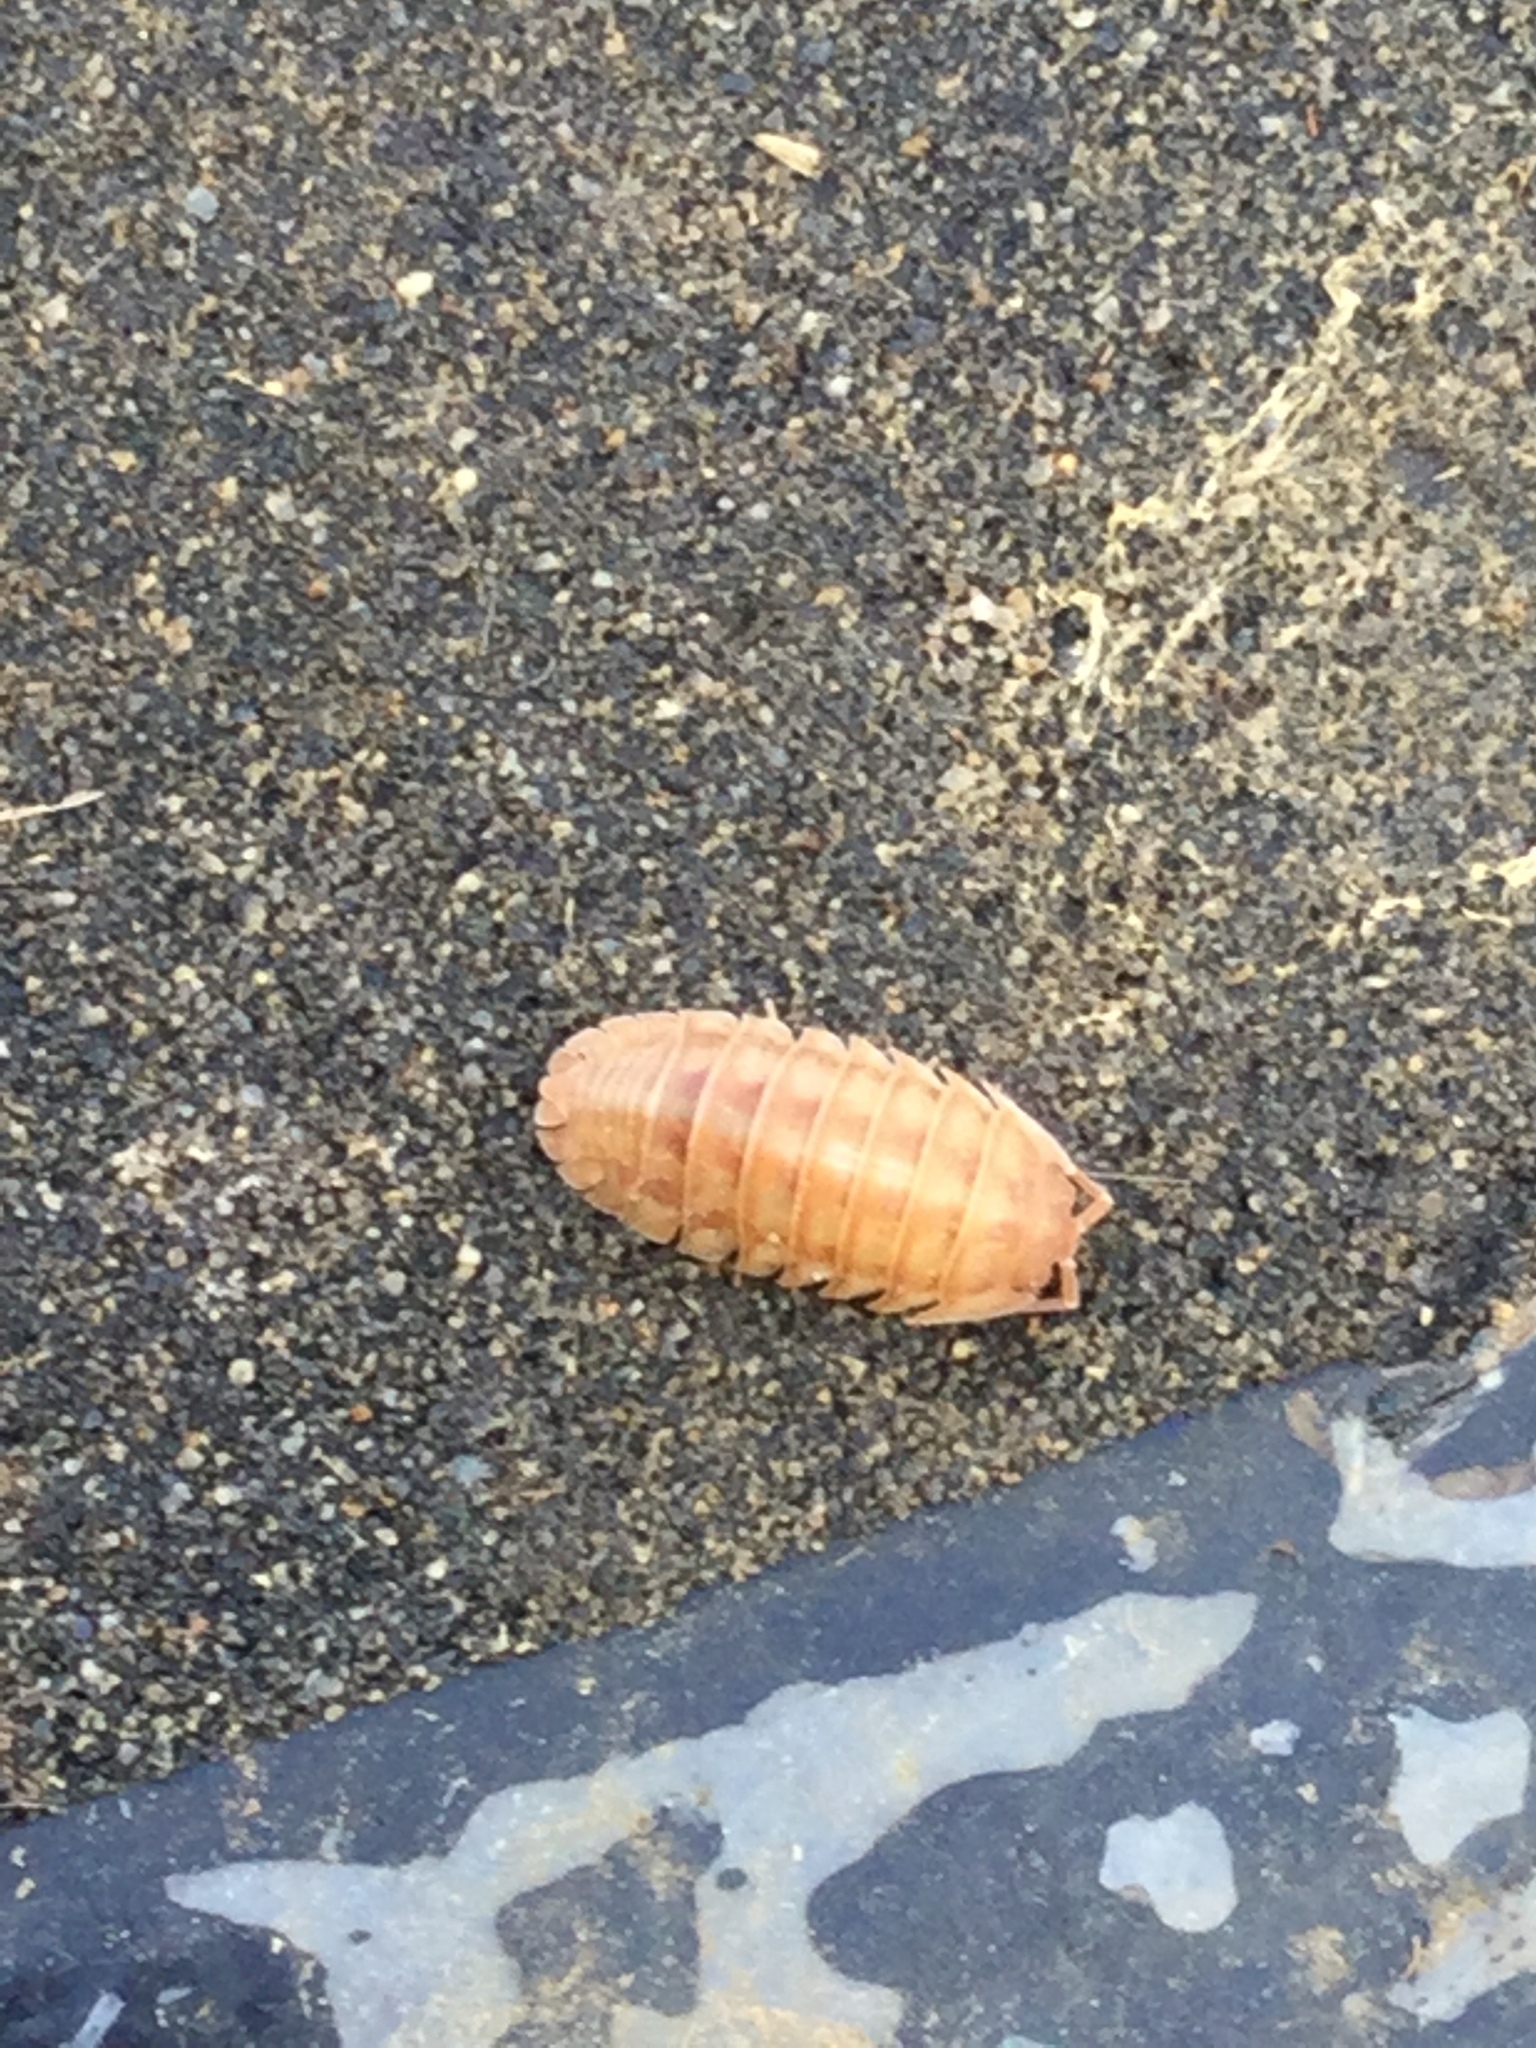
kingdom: Animalia
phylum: Arthropoda
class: Malacostraca
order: Isopoda
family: Armadillidiidae
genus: Armadillidium
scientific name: Armadillidium nasatum
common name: Isopod
